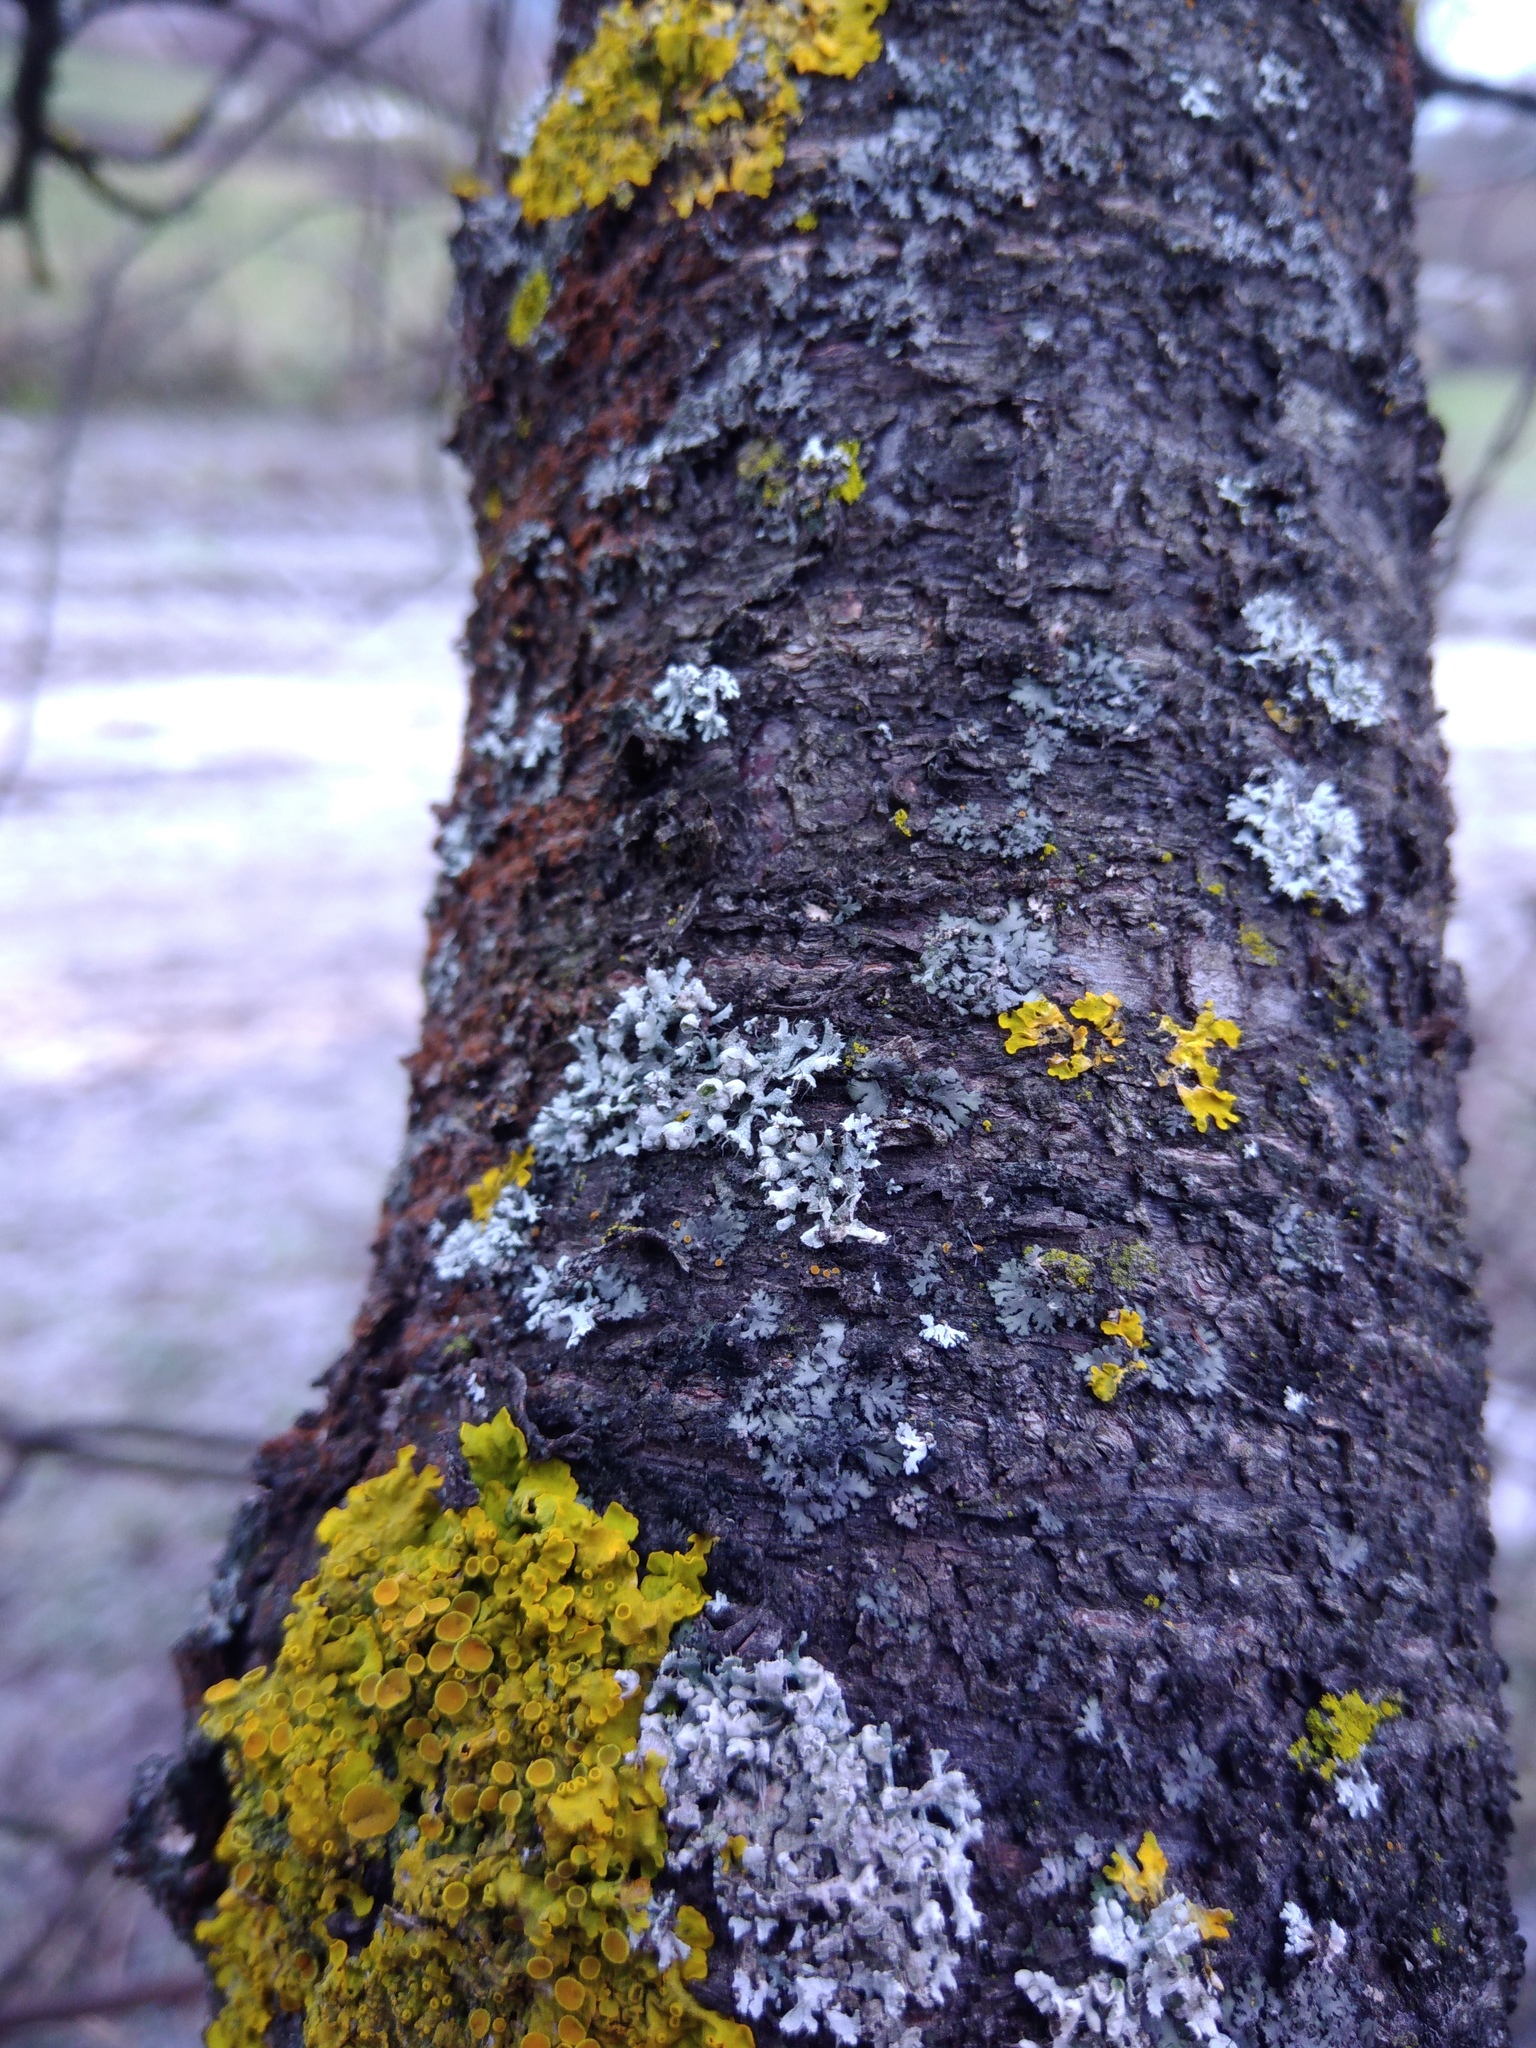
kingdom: Fungi
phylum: Ascomycota
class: Lecanoromycetes
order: Caliciales
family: Physciaceae
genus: Physcia
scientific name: Physcia adscendens
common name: Hooded rosette lichen
